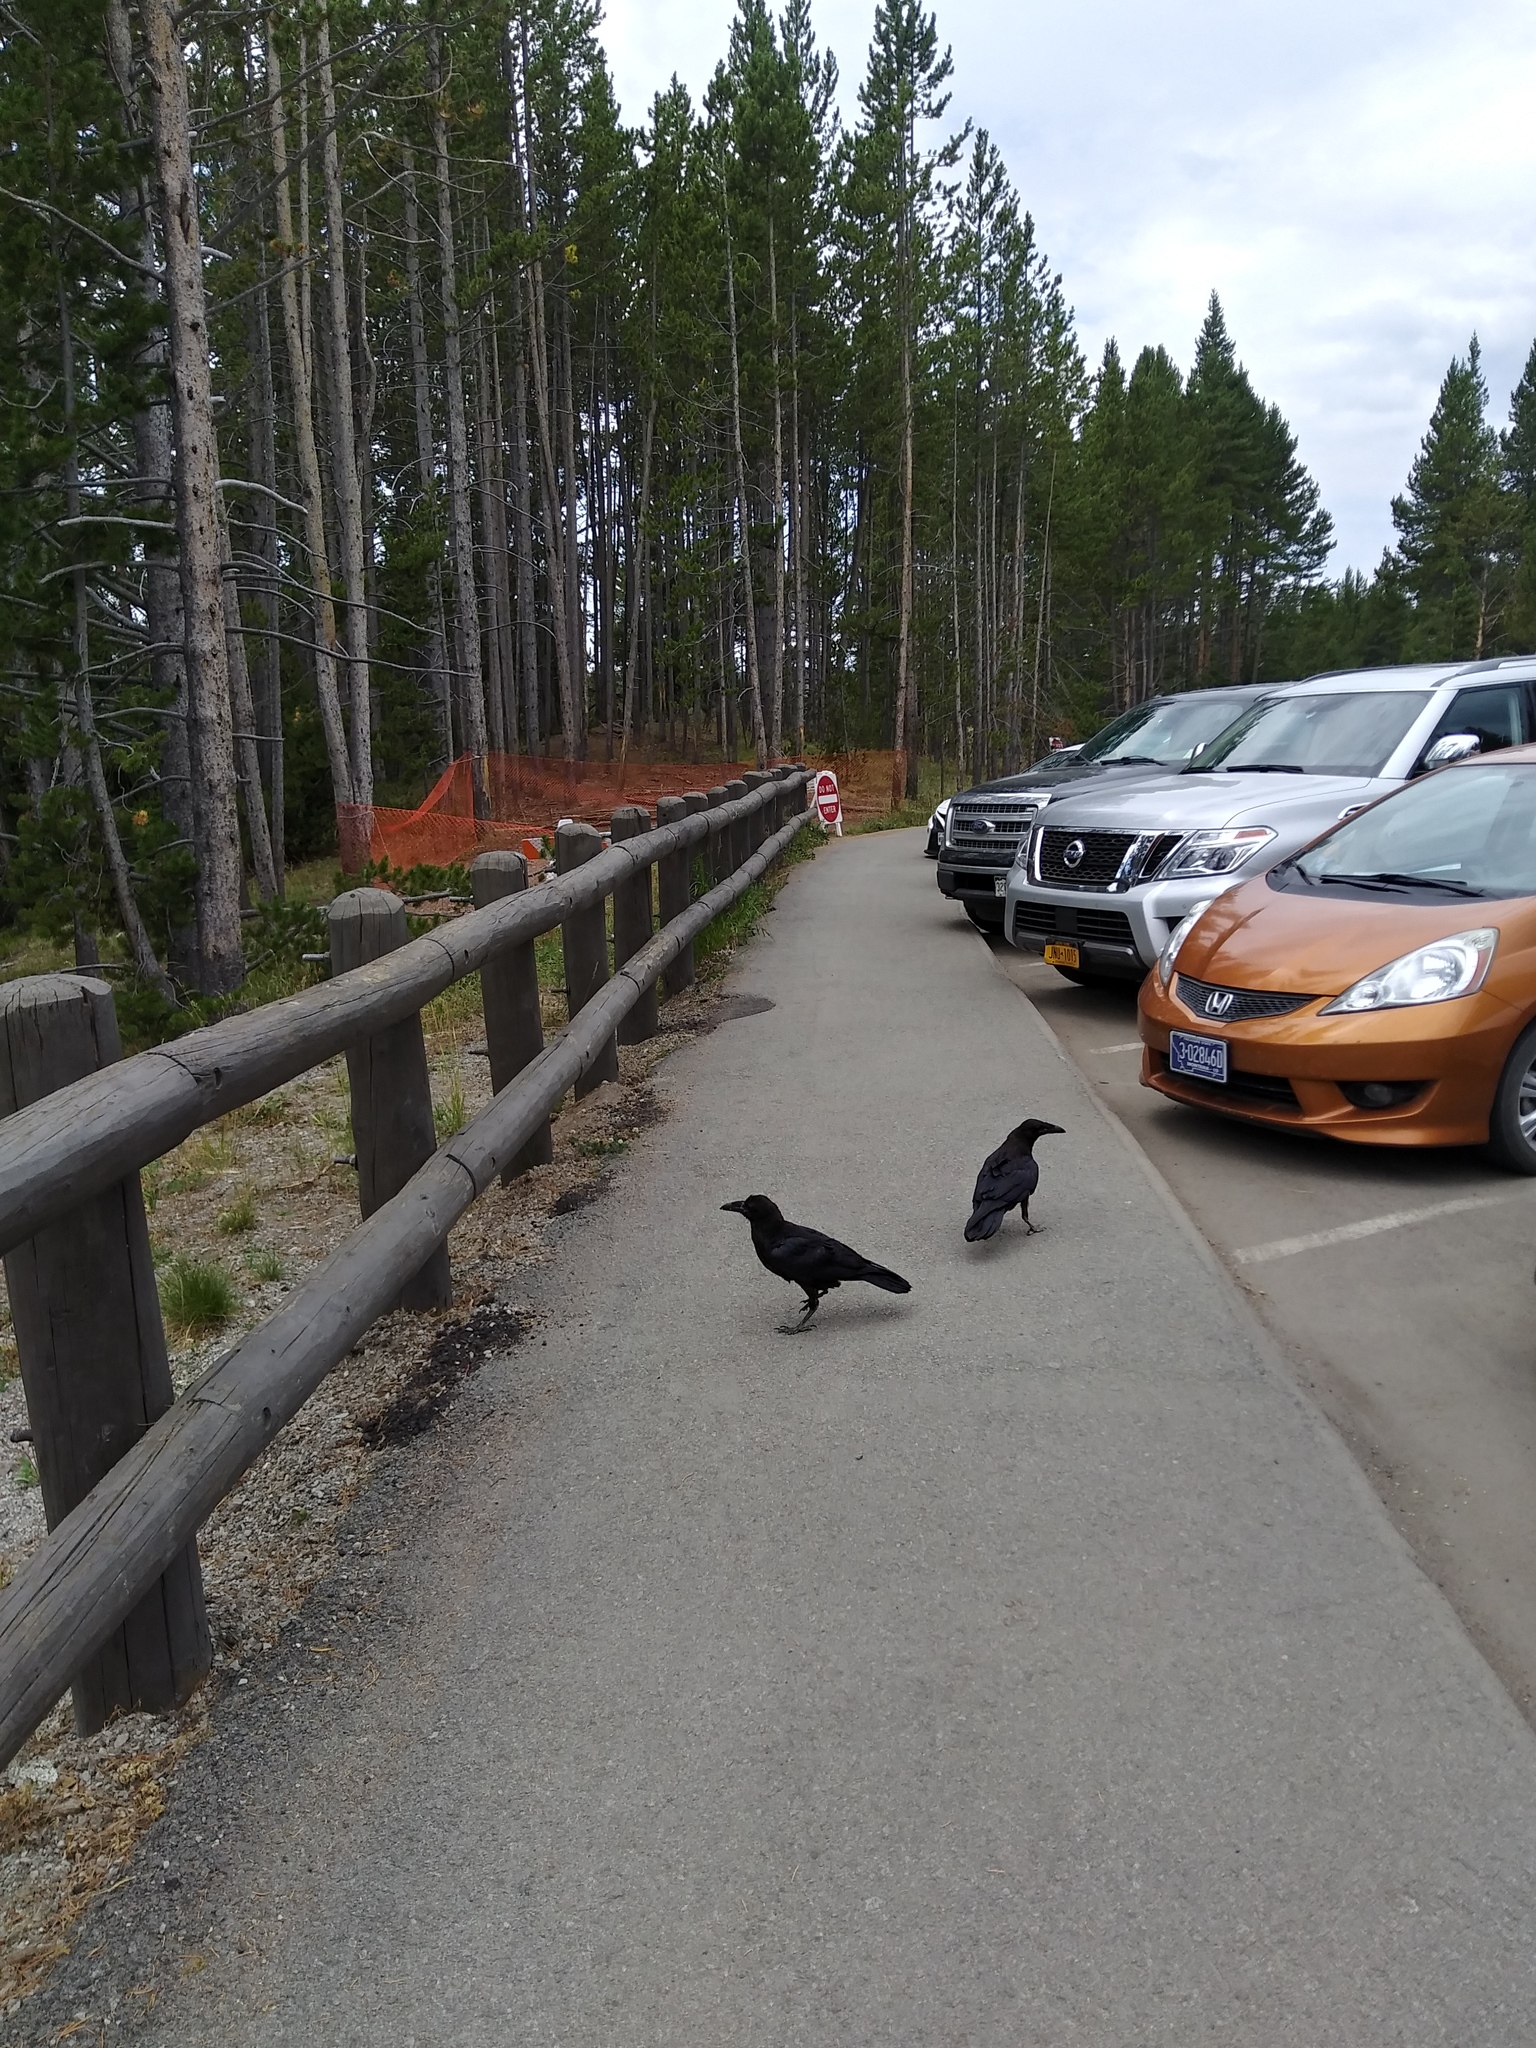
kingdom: Animalia
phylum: Chordata
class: Aves
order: Passeriformes
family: Corvidae
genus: Corvus
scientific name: Corvus corax
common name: Common raven
